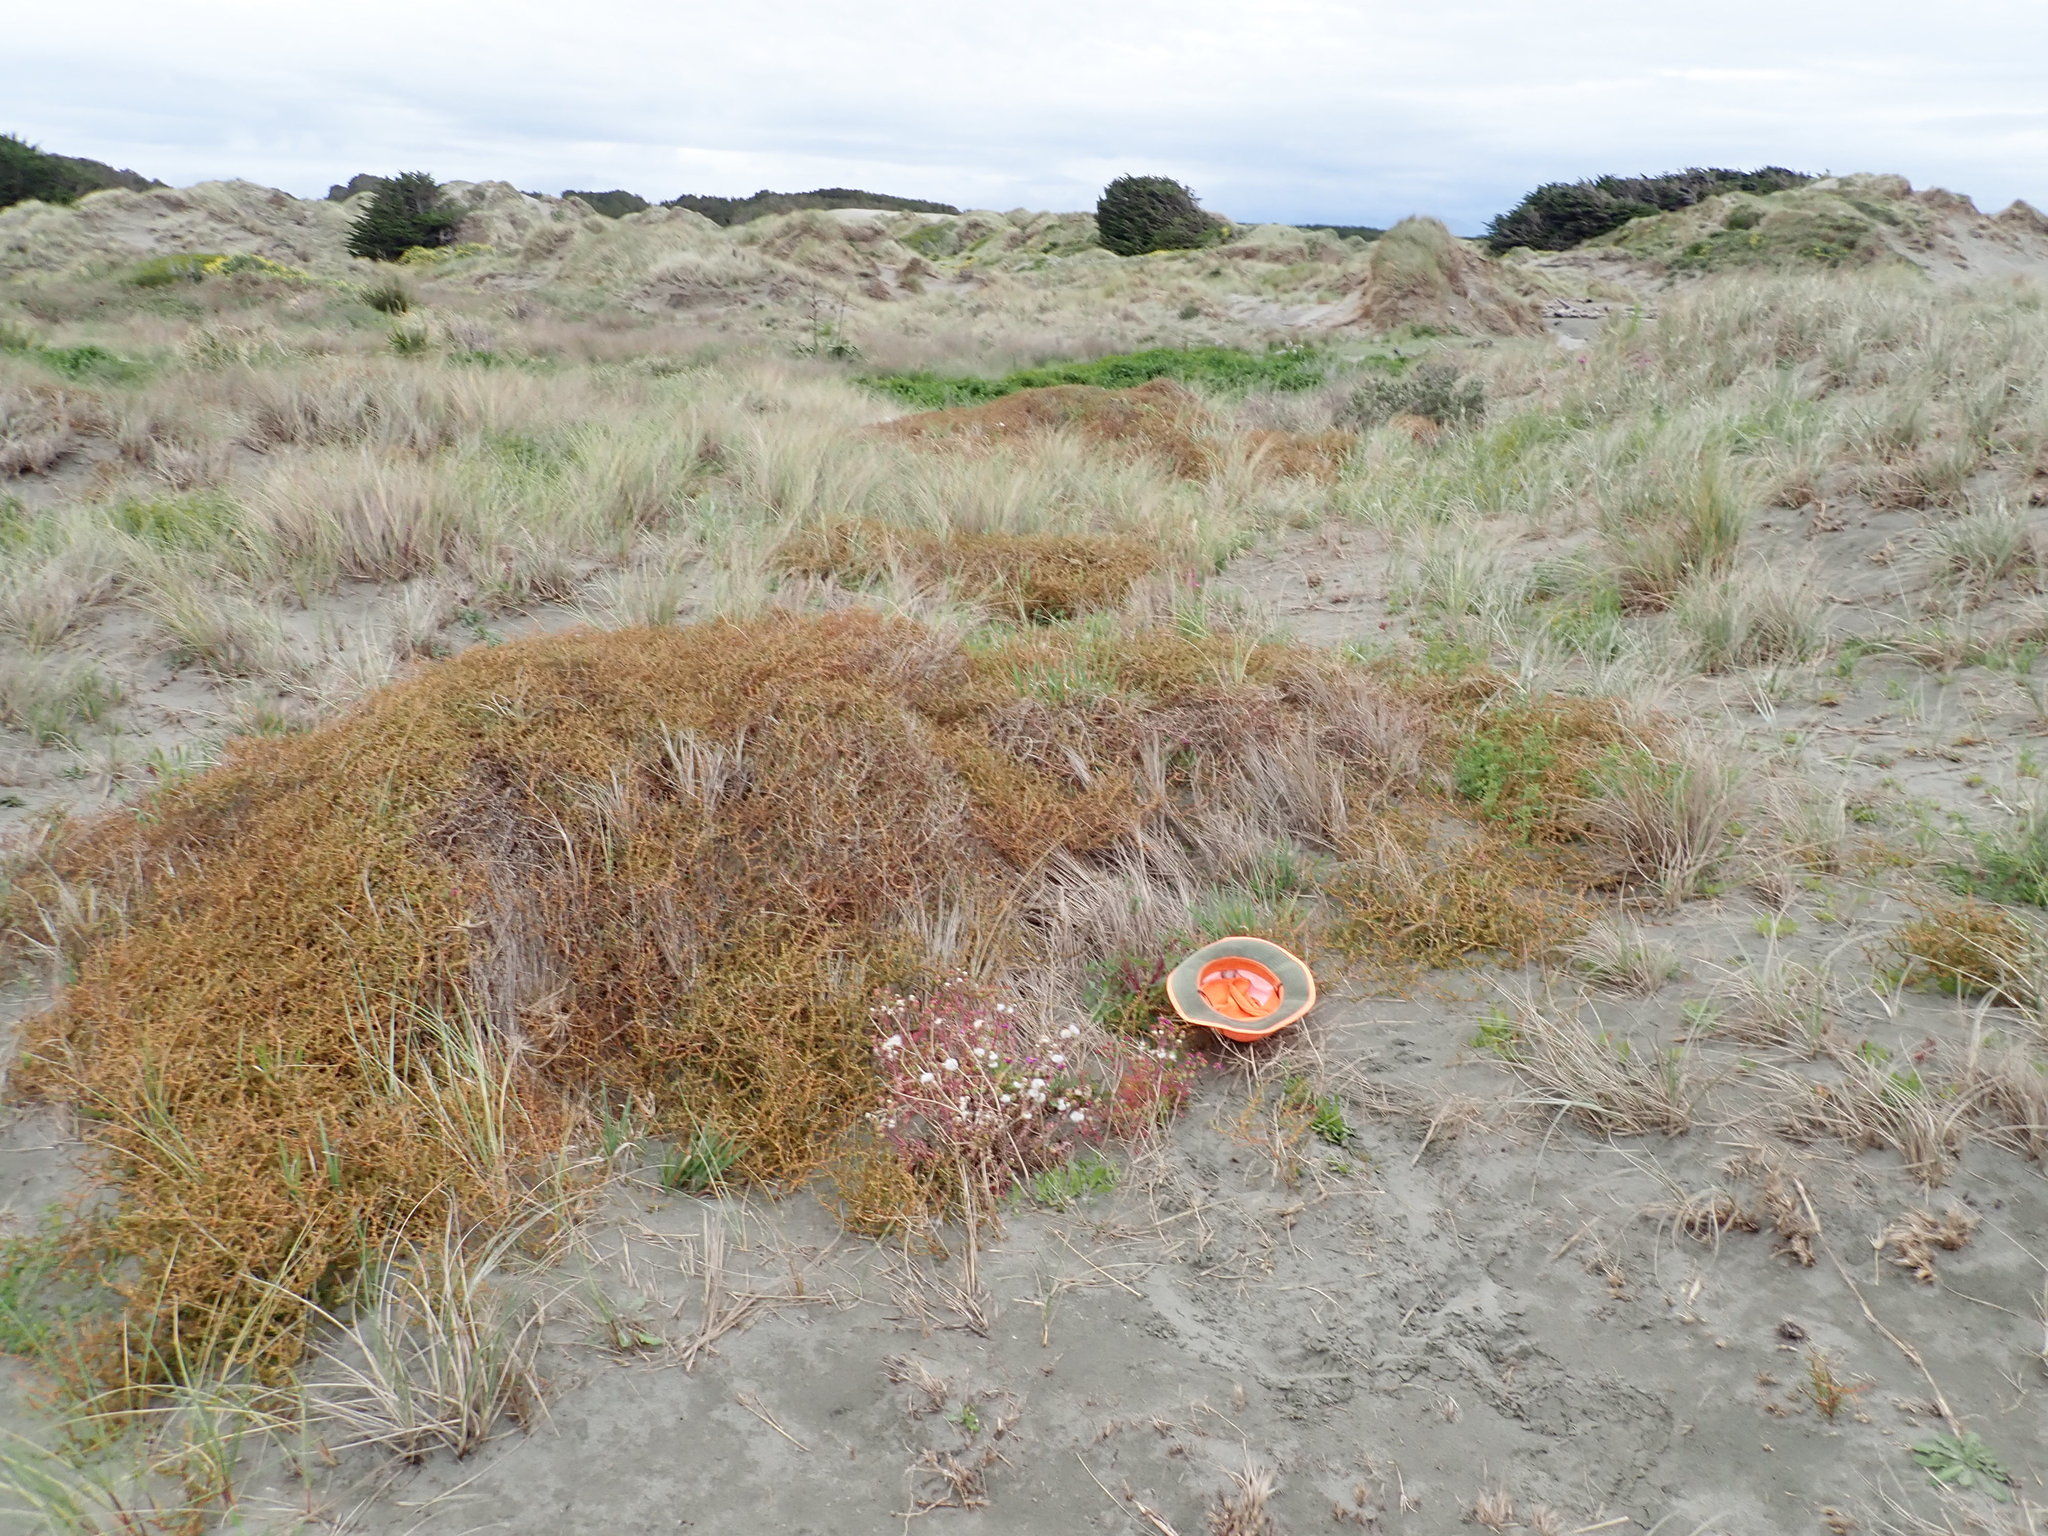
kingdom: Plantae
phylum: Tracheophyta
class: Magnoliopsida
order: Asterales
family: Asteraceae
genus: Sonchus
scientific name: Sonchus oleraceus
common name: Common sowthistle
